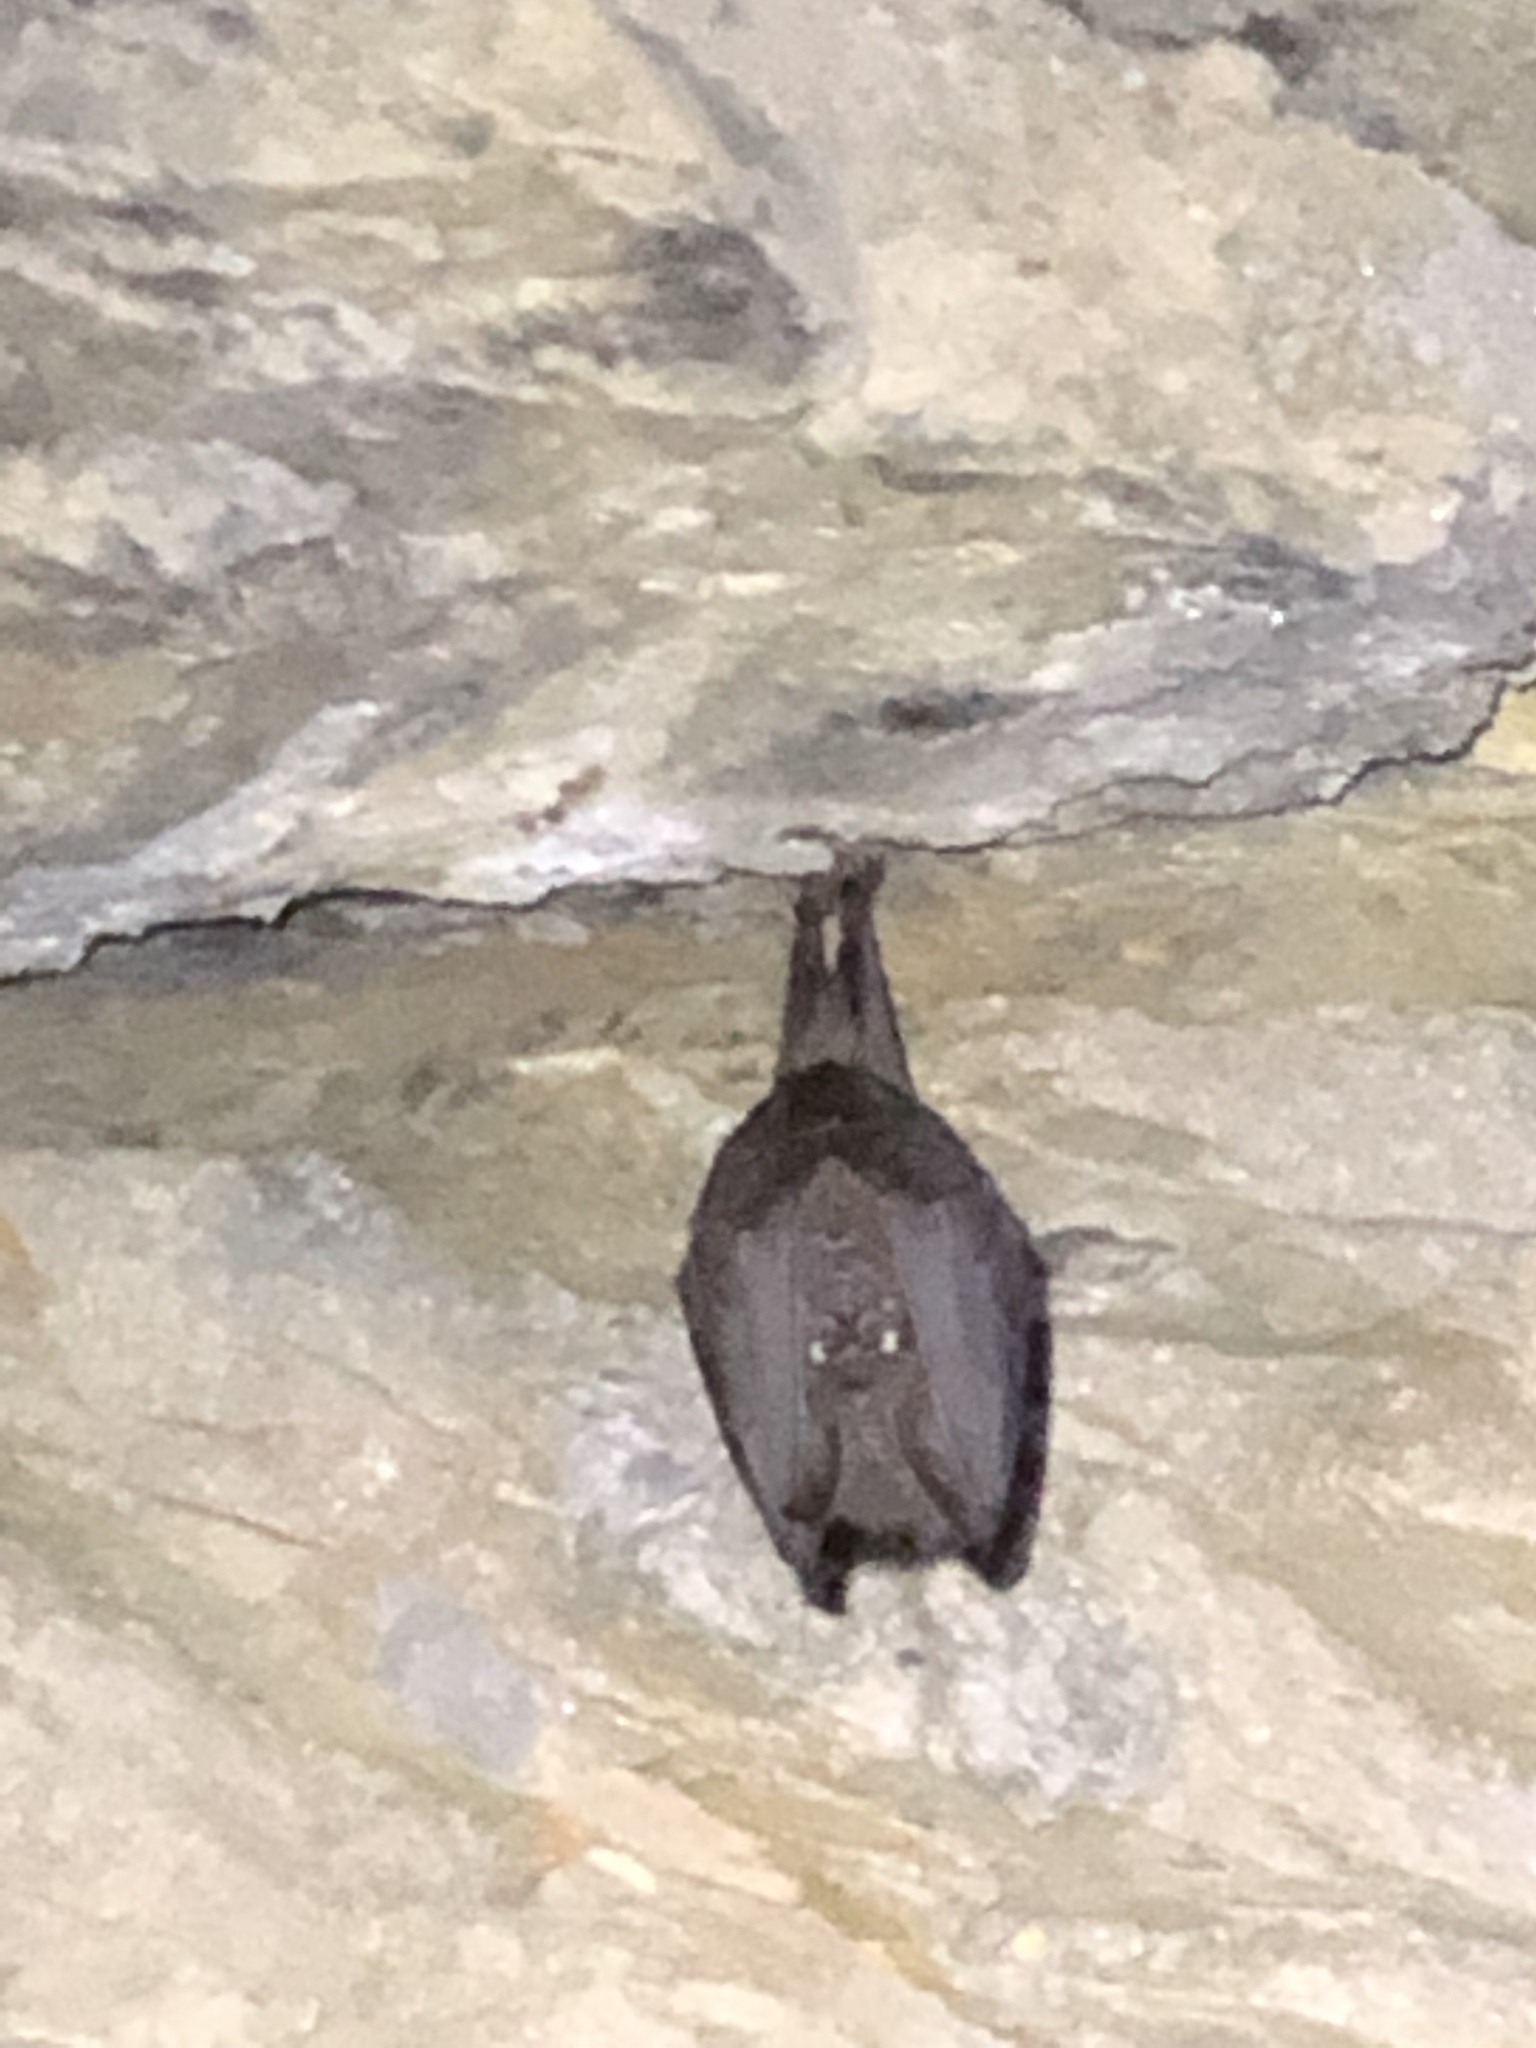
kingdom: Animalia
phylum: Chordata
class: Mammalia
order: Chiroptera
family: Rhinolophidae
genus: Rhinolophus
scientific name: Rhinolophus formosae
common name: Formosan woolly horseshoe bat
